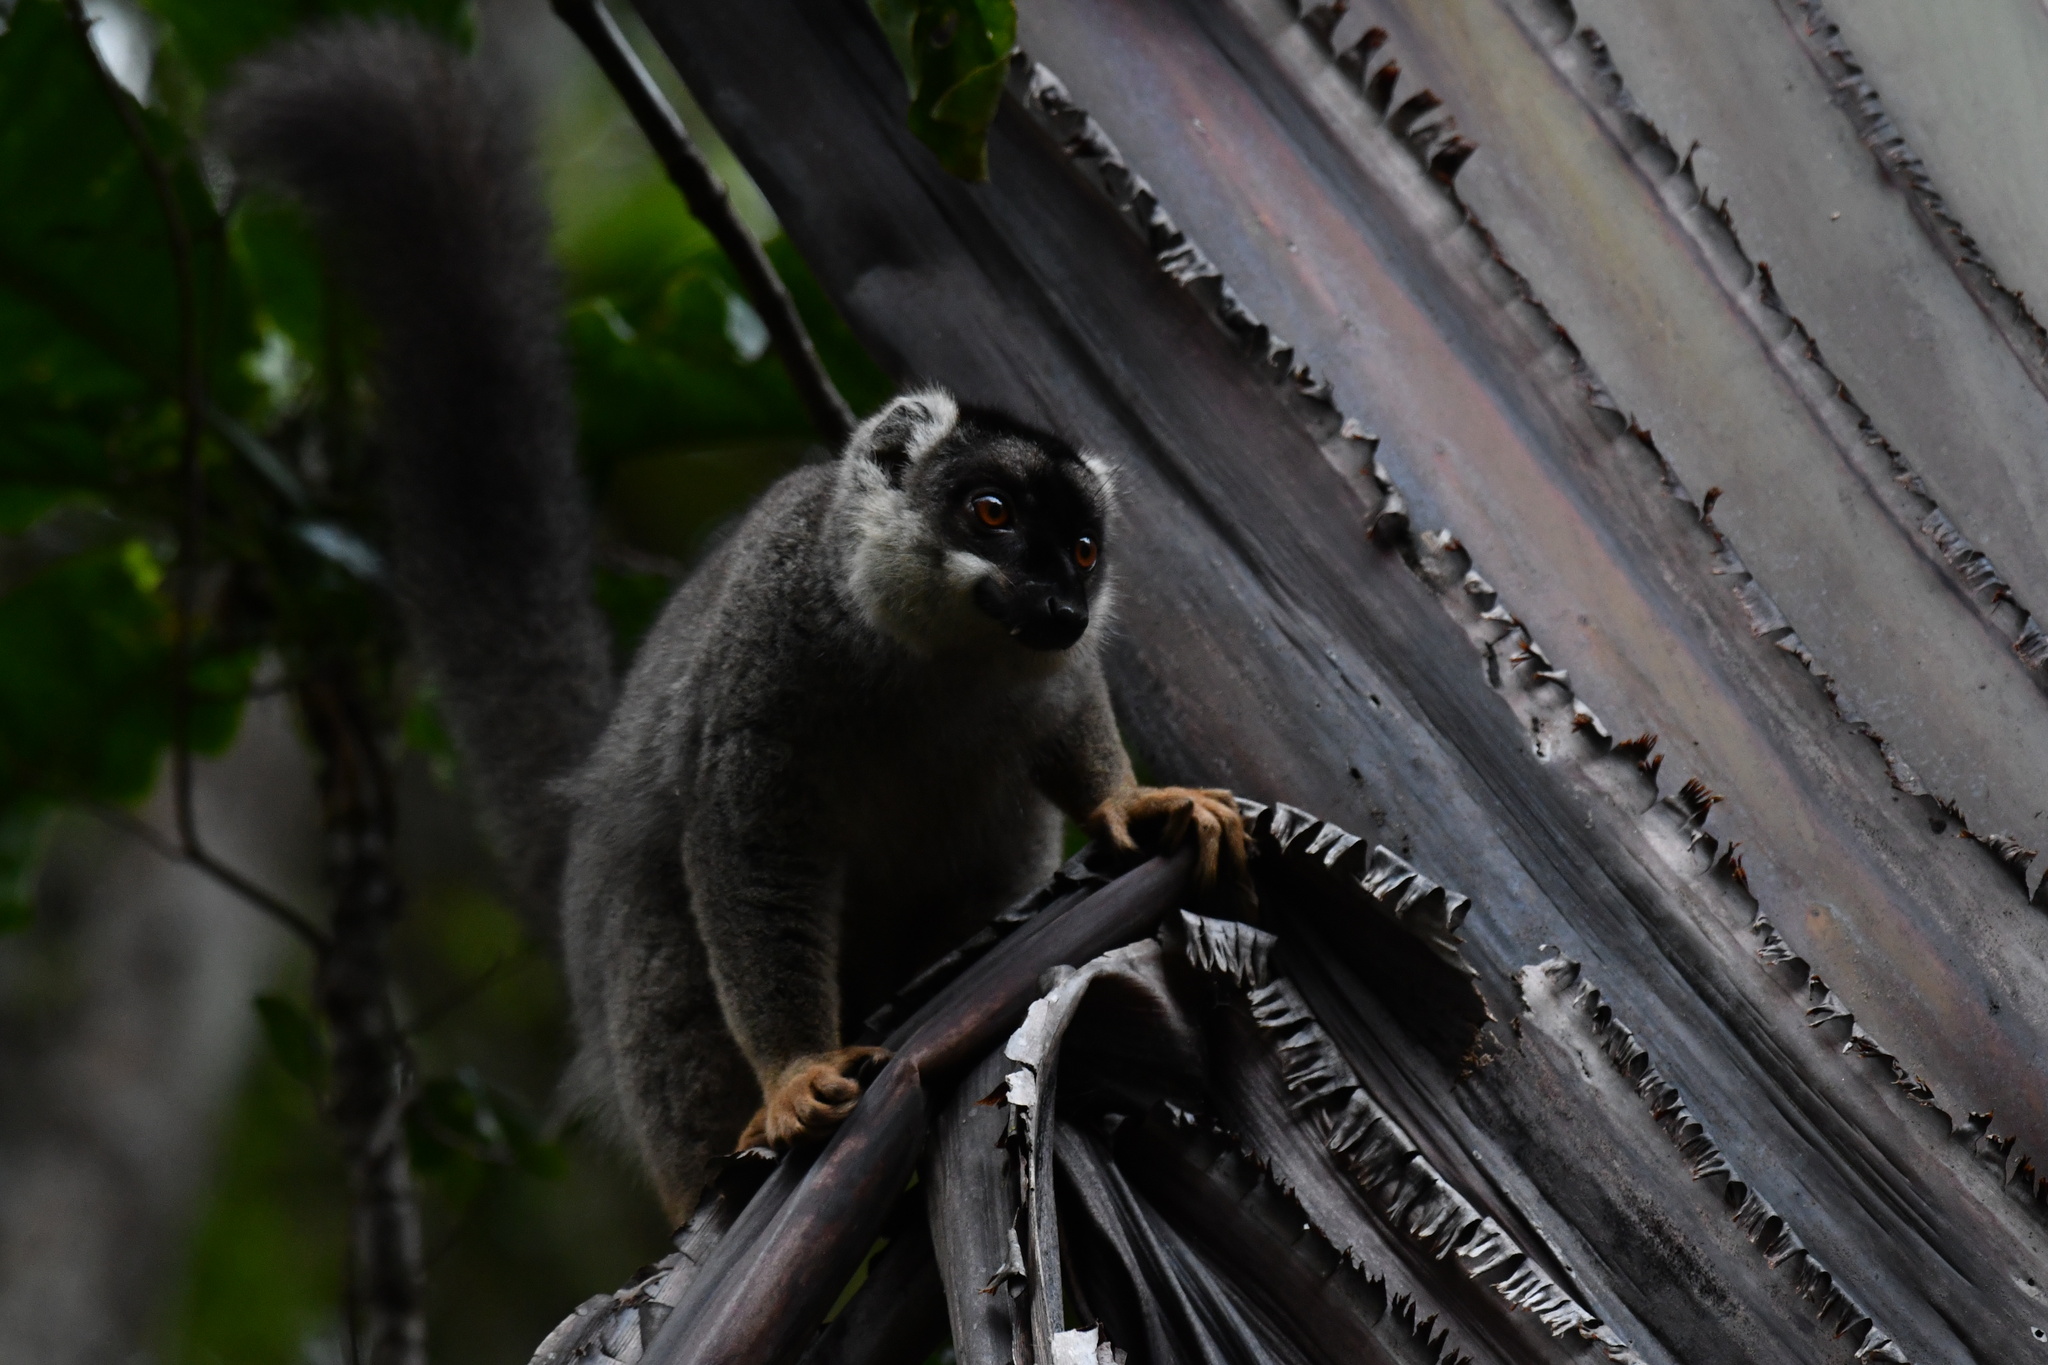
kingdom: Animalia
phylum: Chordata
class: Mammalia
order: Primates
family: Lemuridae
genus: Eulemur
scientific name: Eulemur fulvus
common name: Brown lemur
